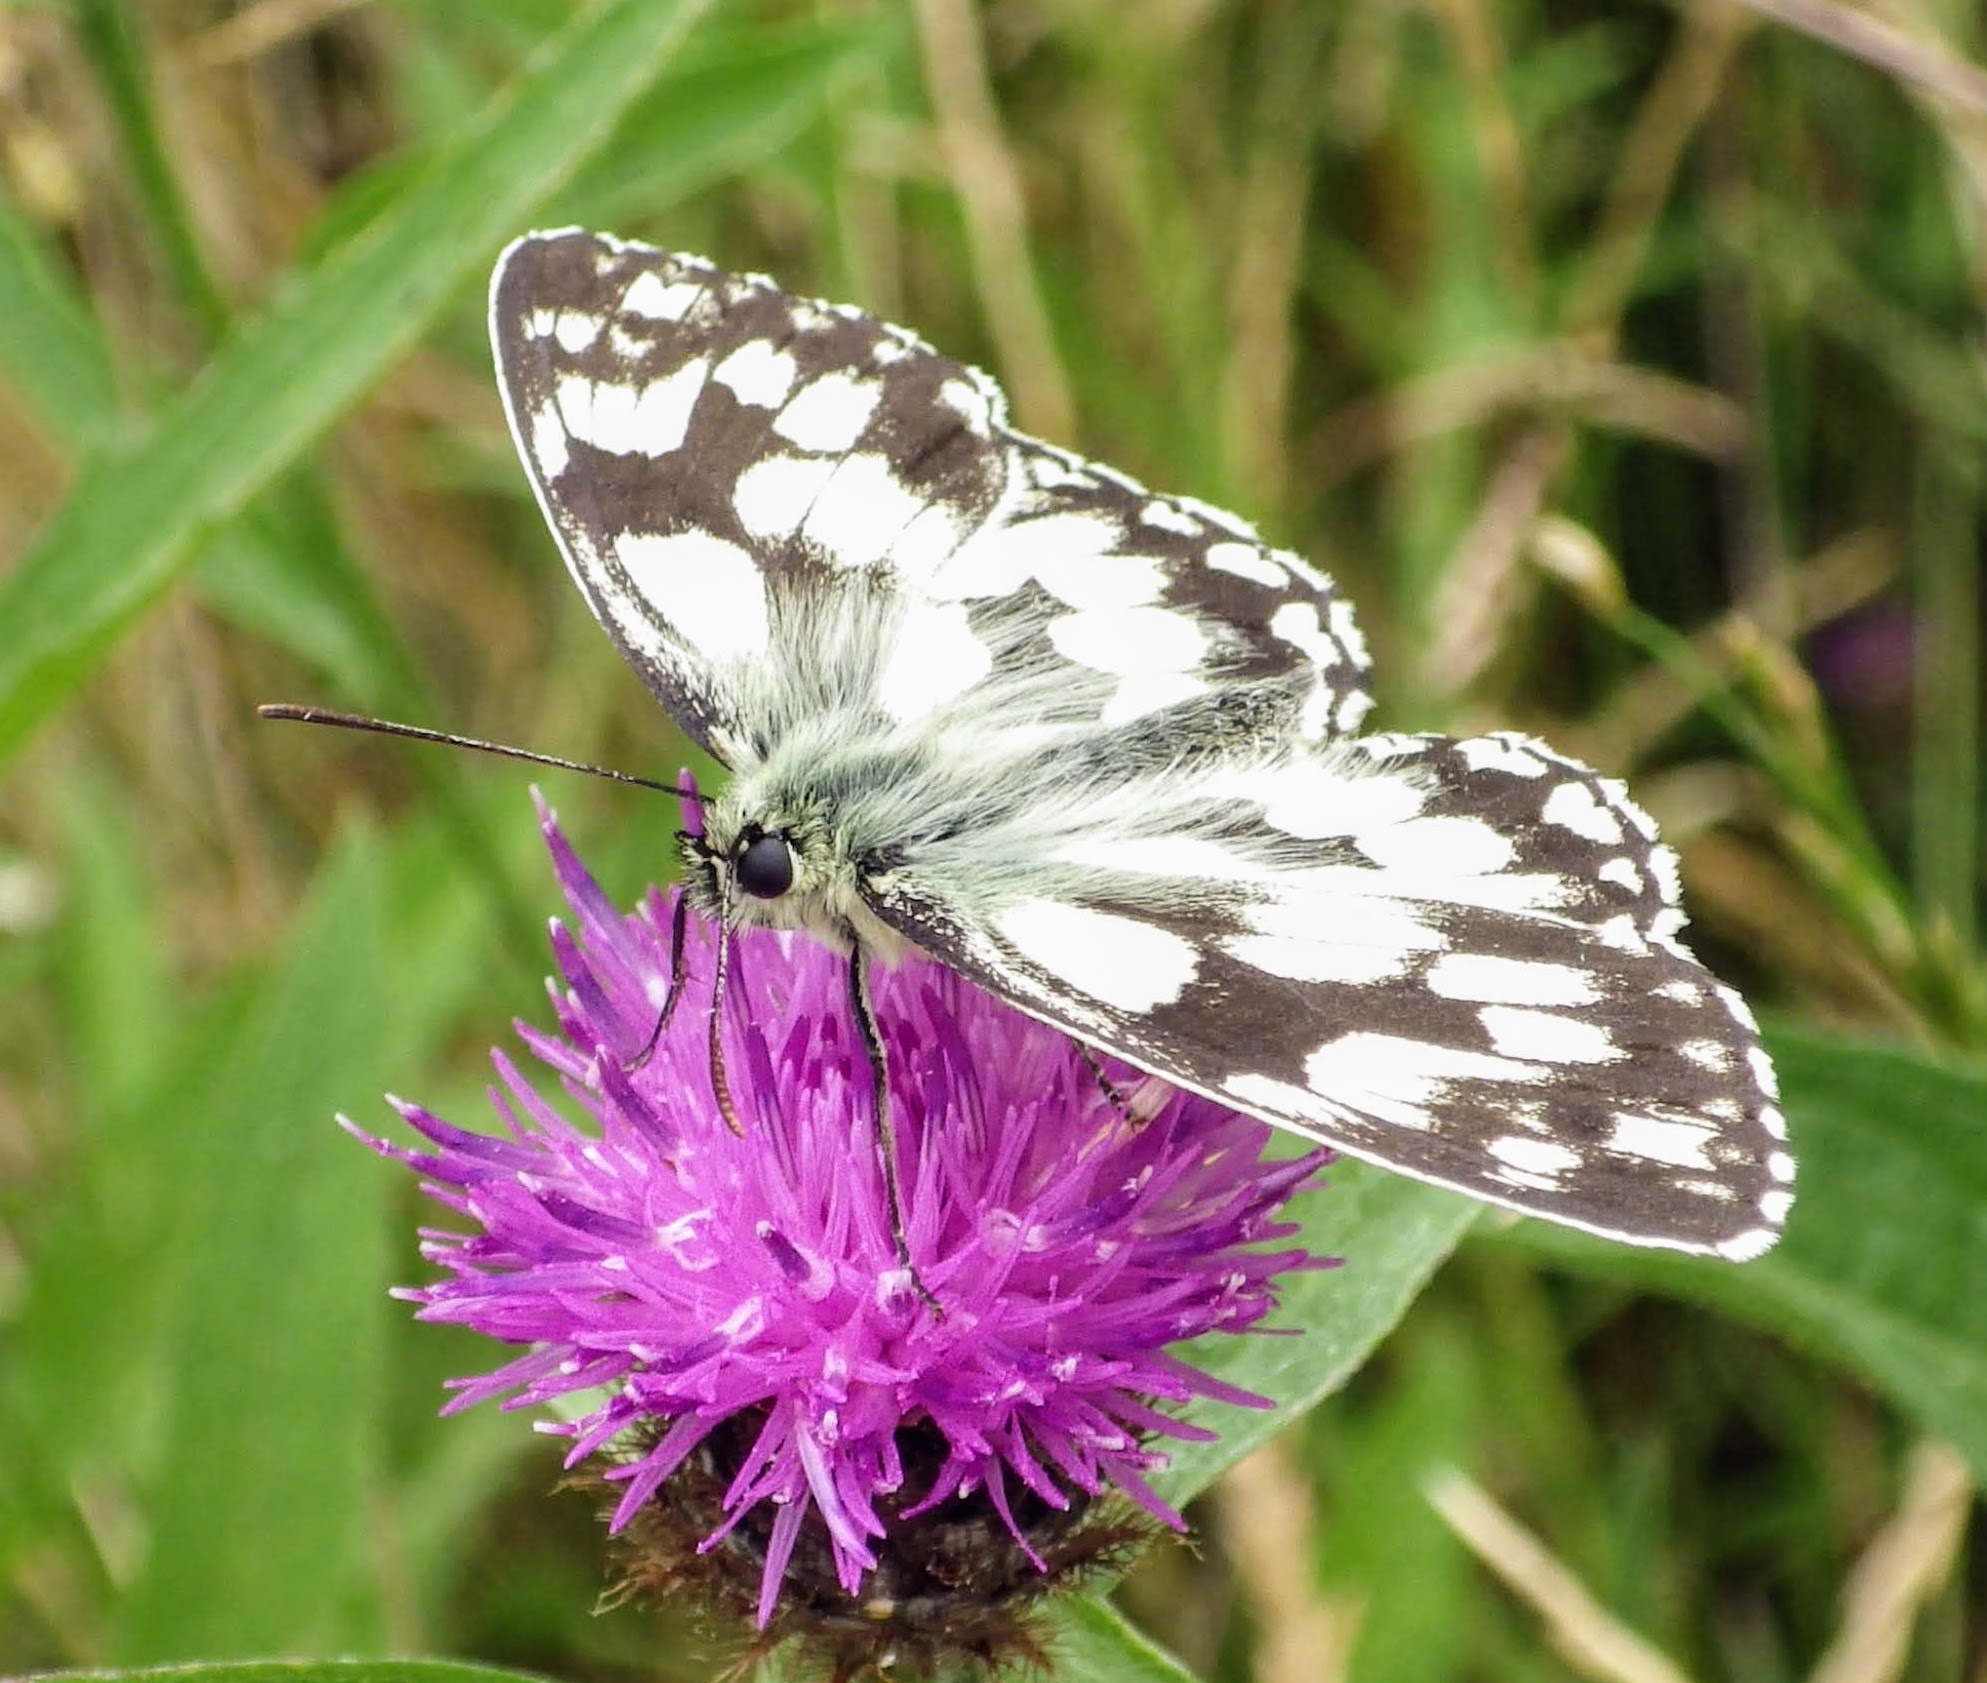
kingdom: Animalia
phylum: Arthropoda
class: Insecta
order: Lepidoptera
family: Nymphalidae
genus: Melanargia
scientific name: Melanargia galathea
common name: Marbled white
